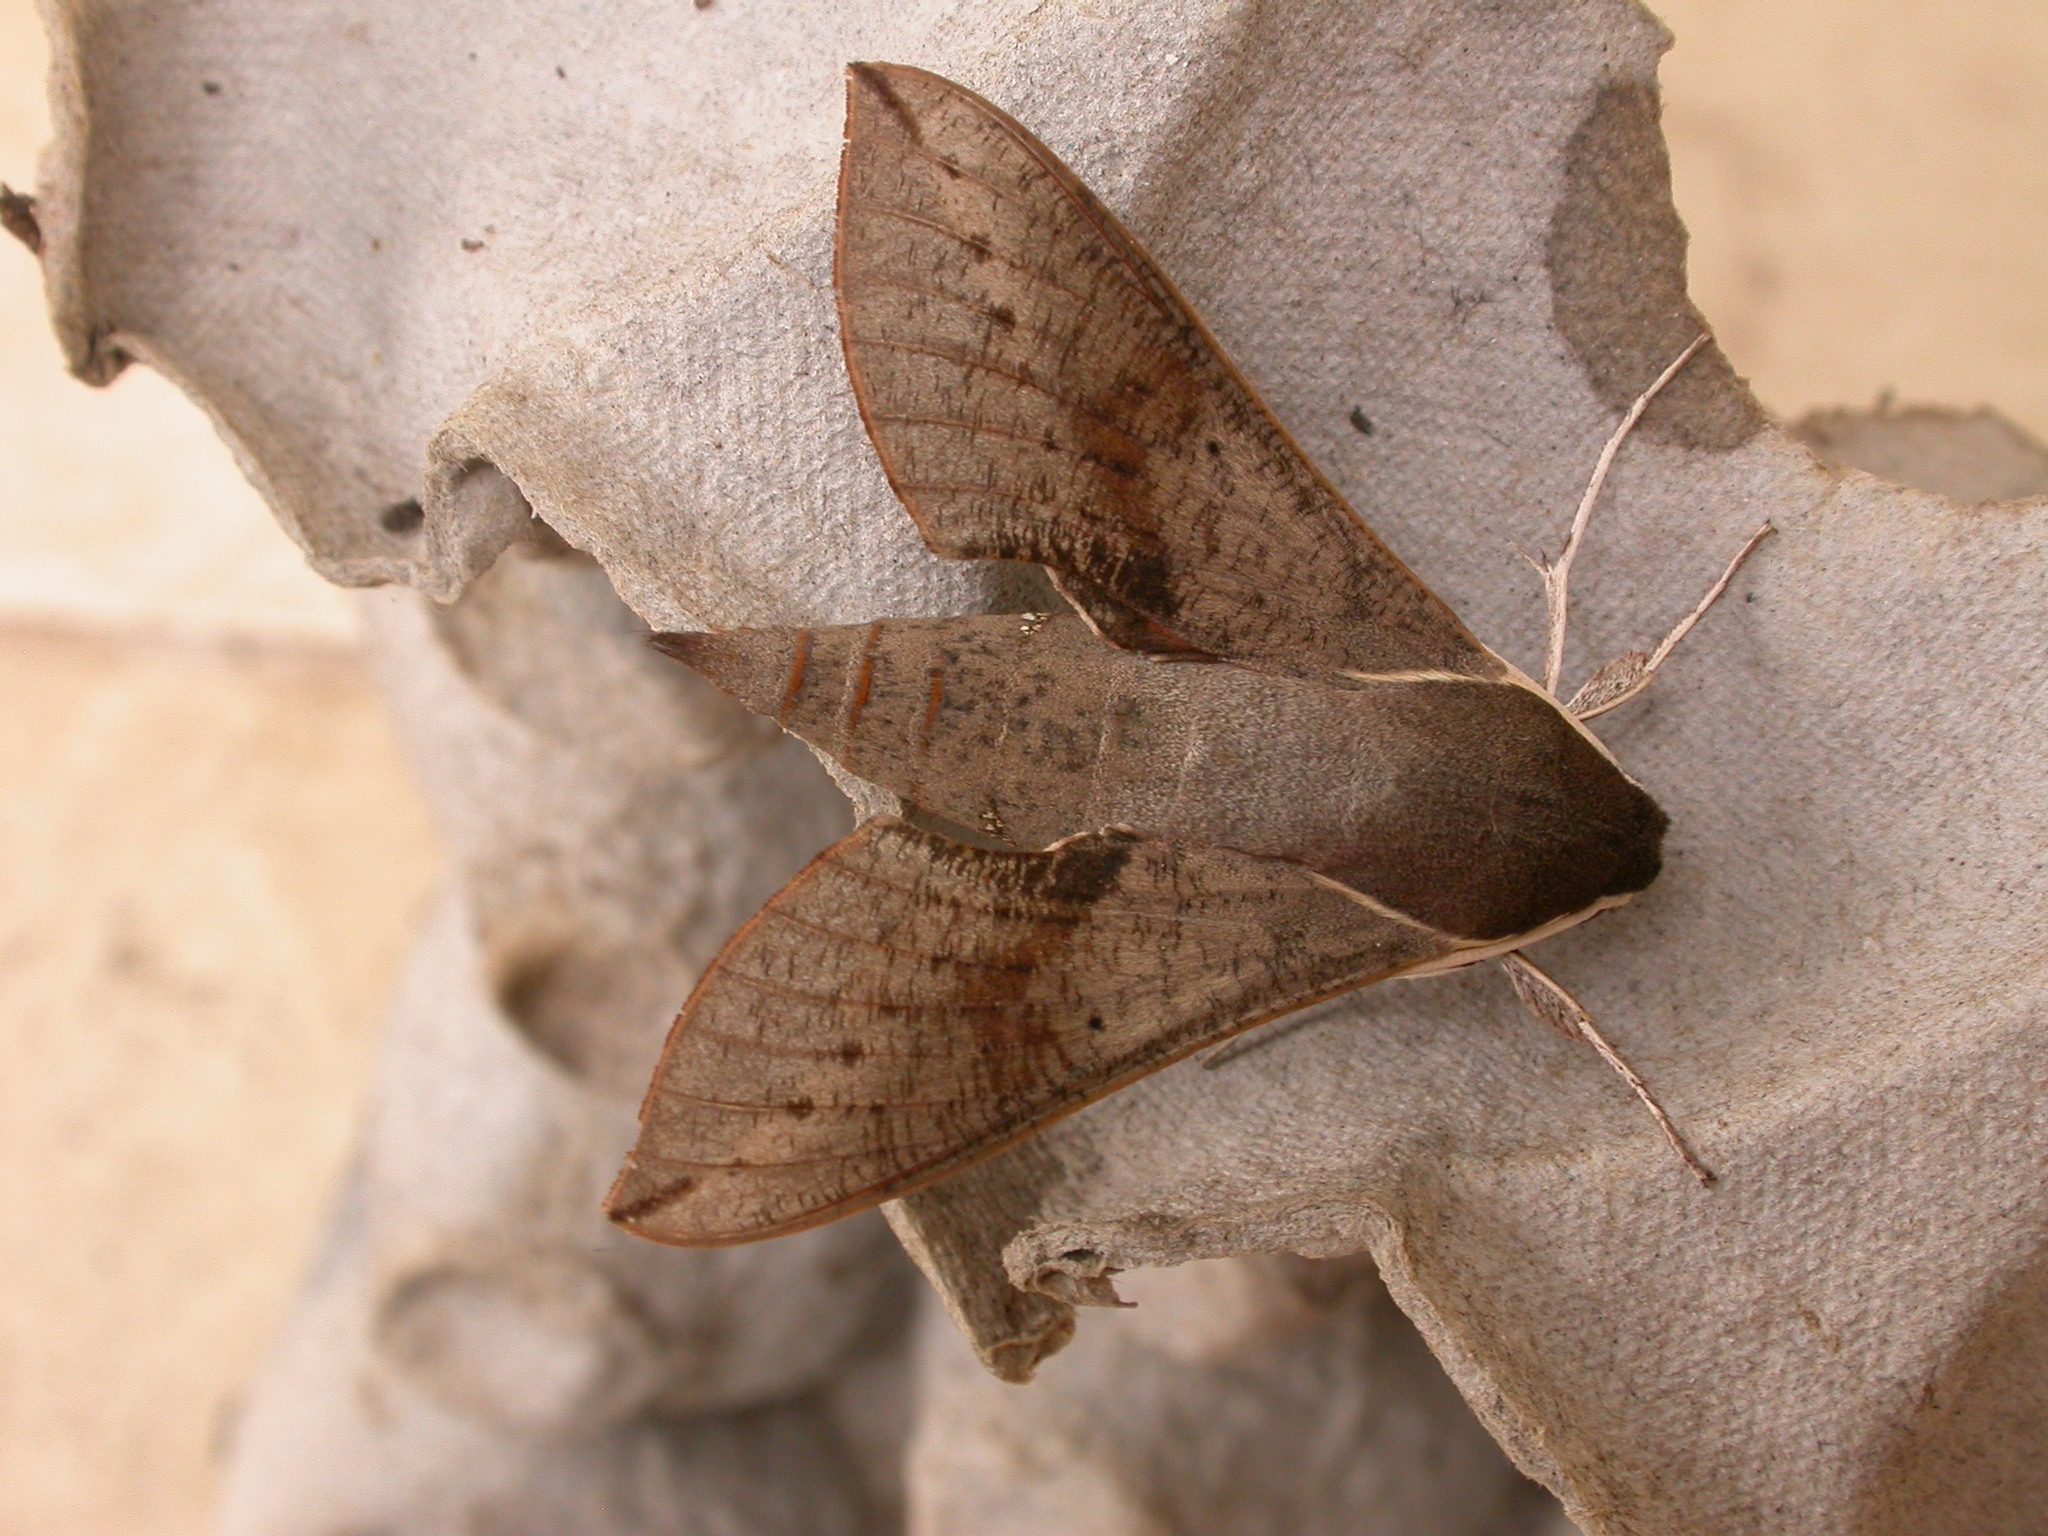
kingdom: Animalia
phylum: Arthropoda
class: Insecta
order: Lepidoptera
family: Sphingidae
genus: Hippotion
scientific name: Hippotion scrofa
